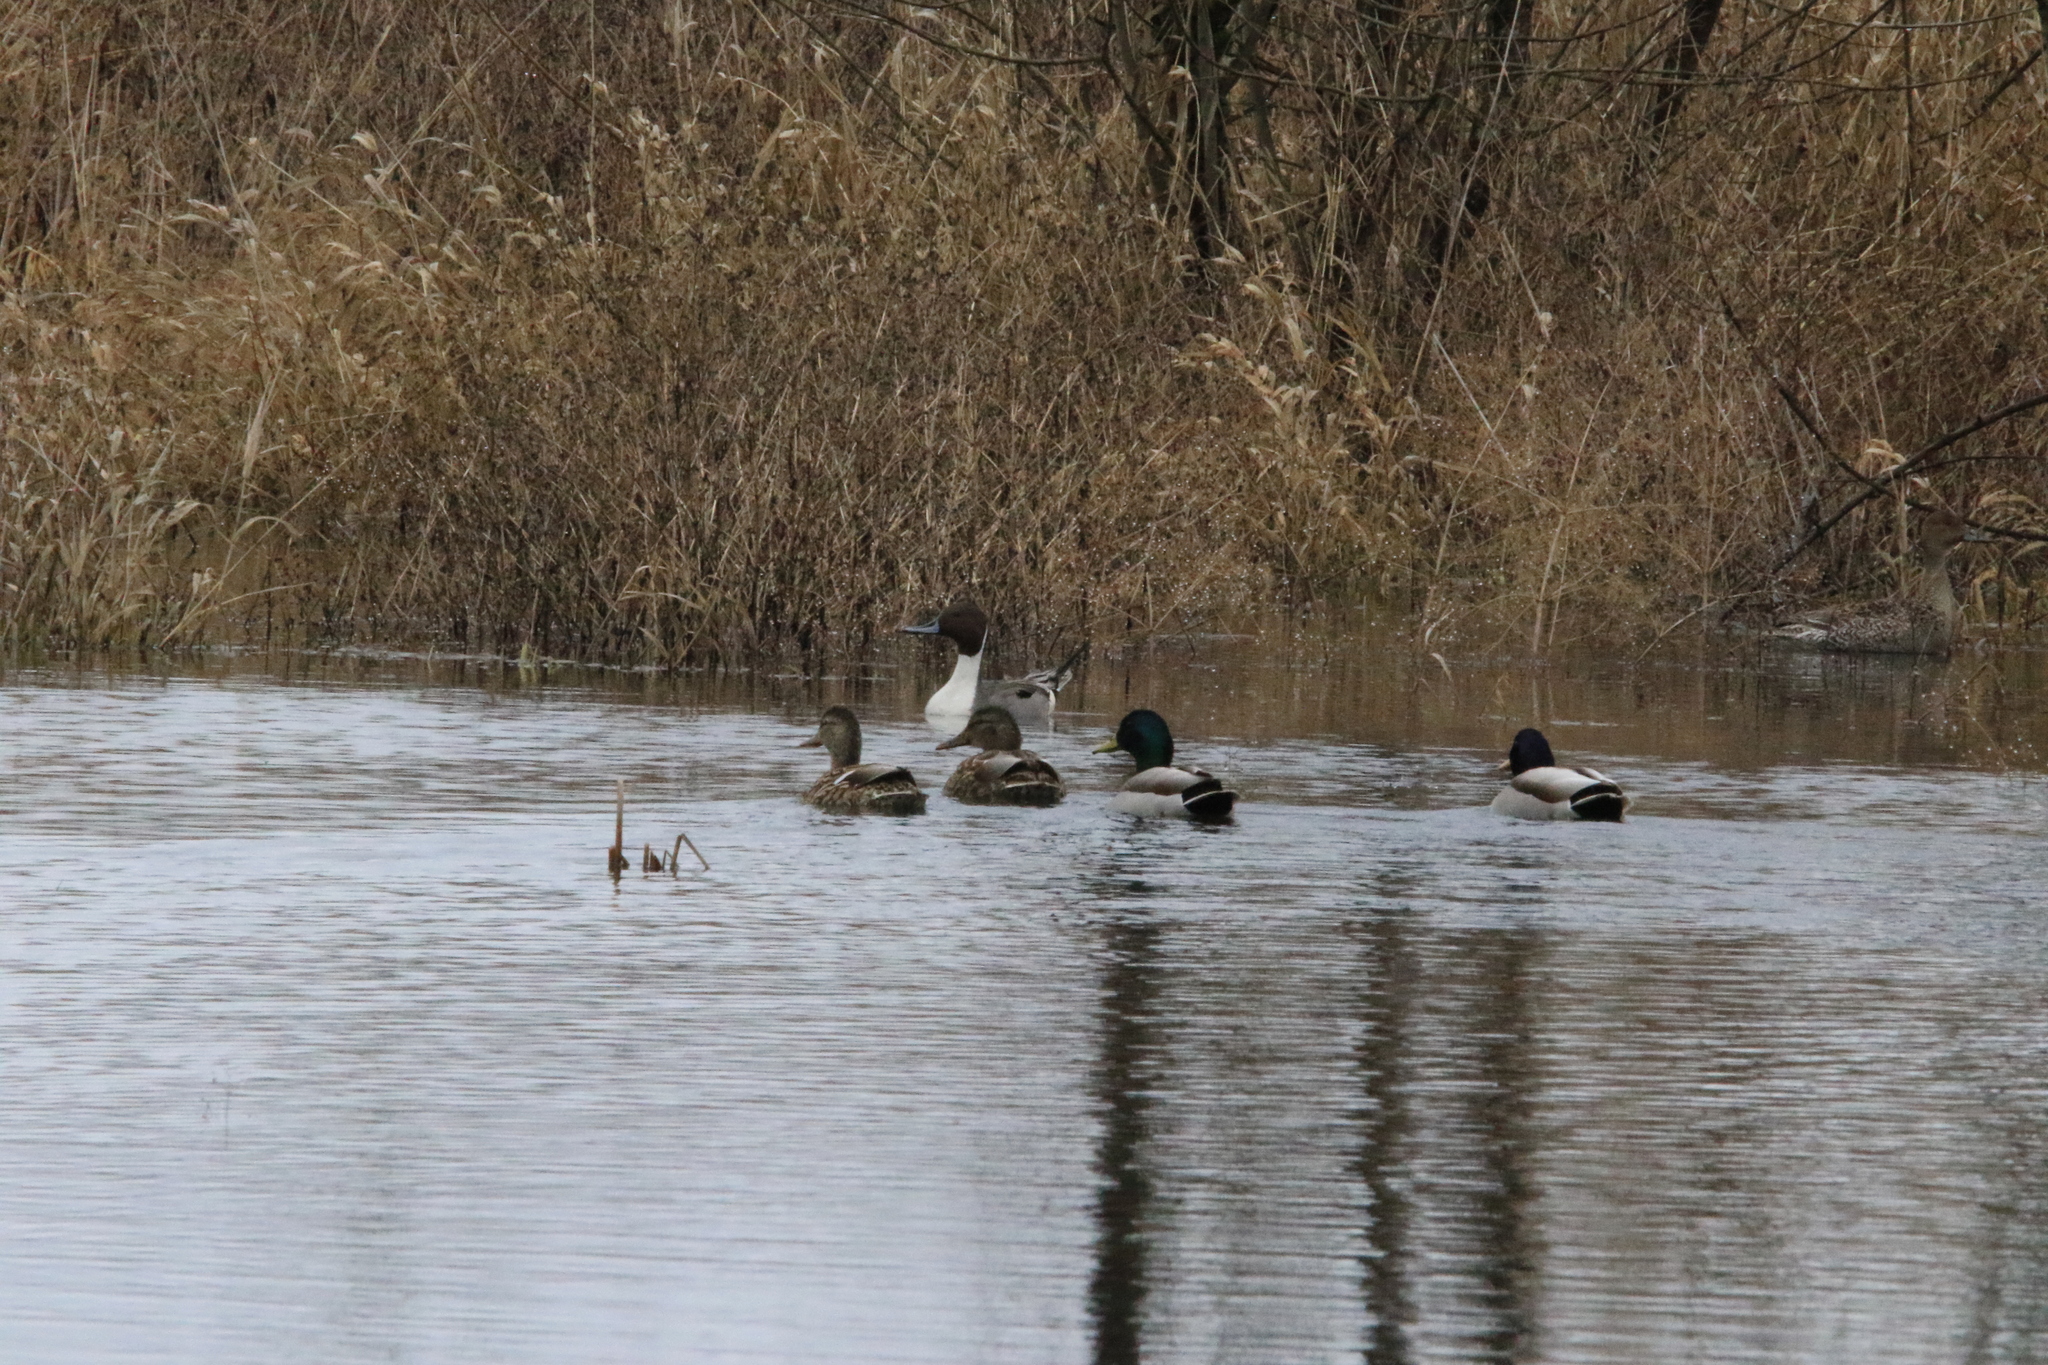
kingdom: Animalia
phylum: Chordata
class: Aves
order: Anseriformes
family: Anatidae
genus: Anas
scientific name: Anas acuta
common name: Northern pintail
